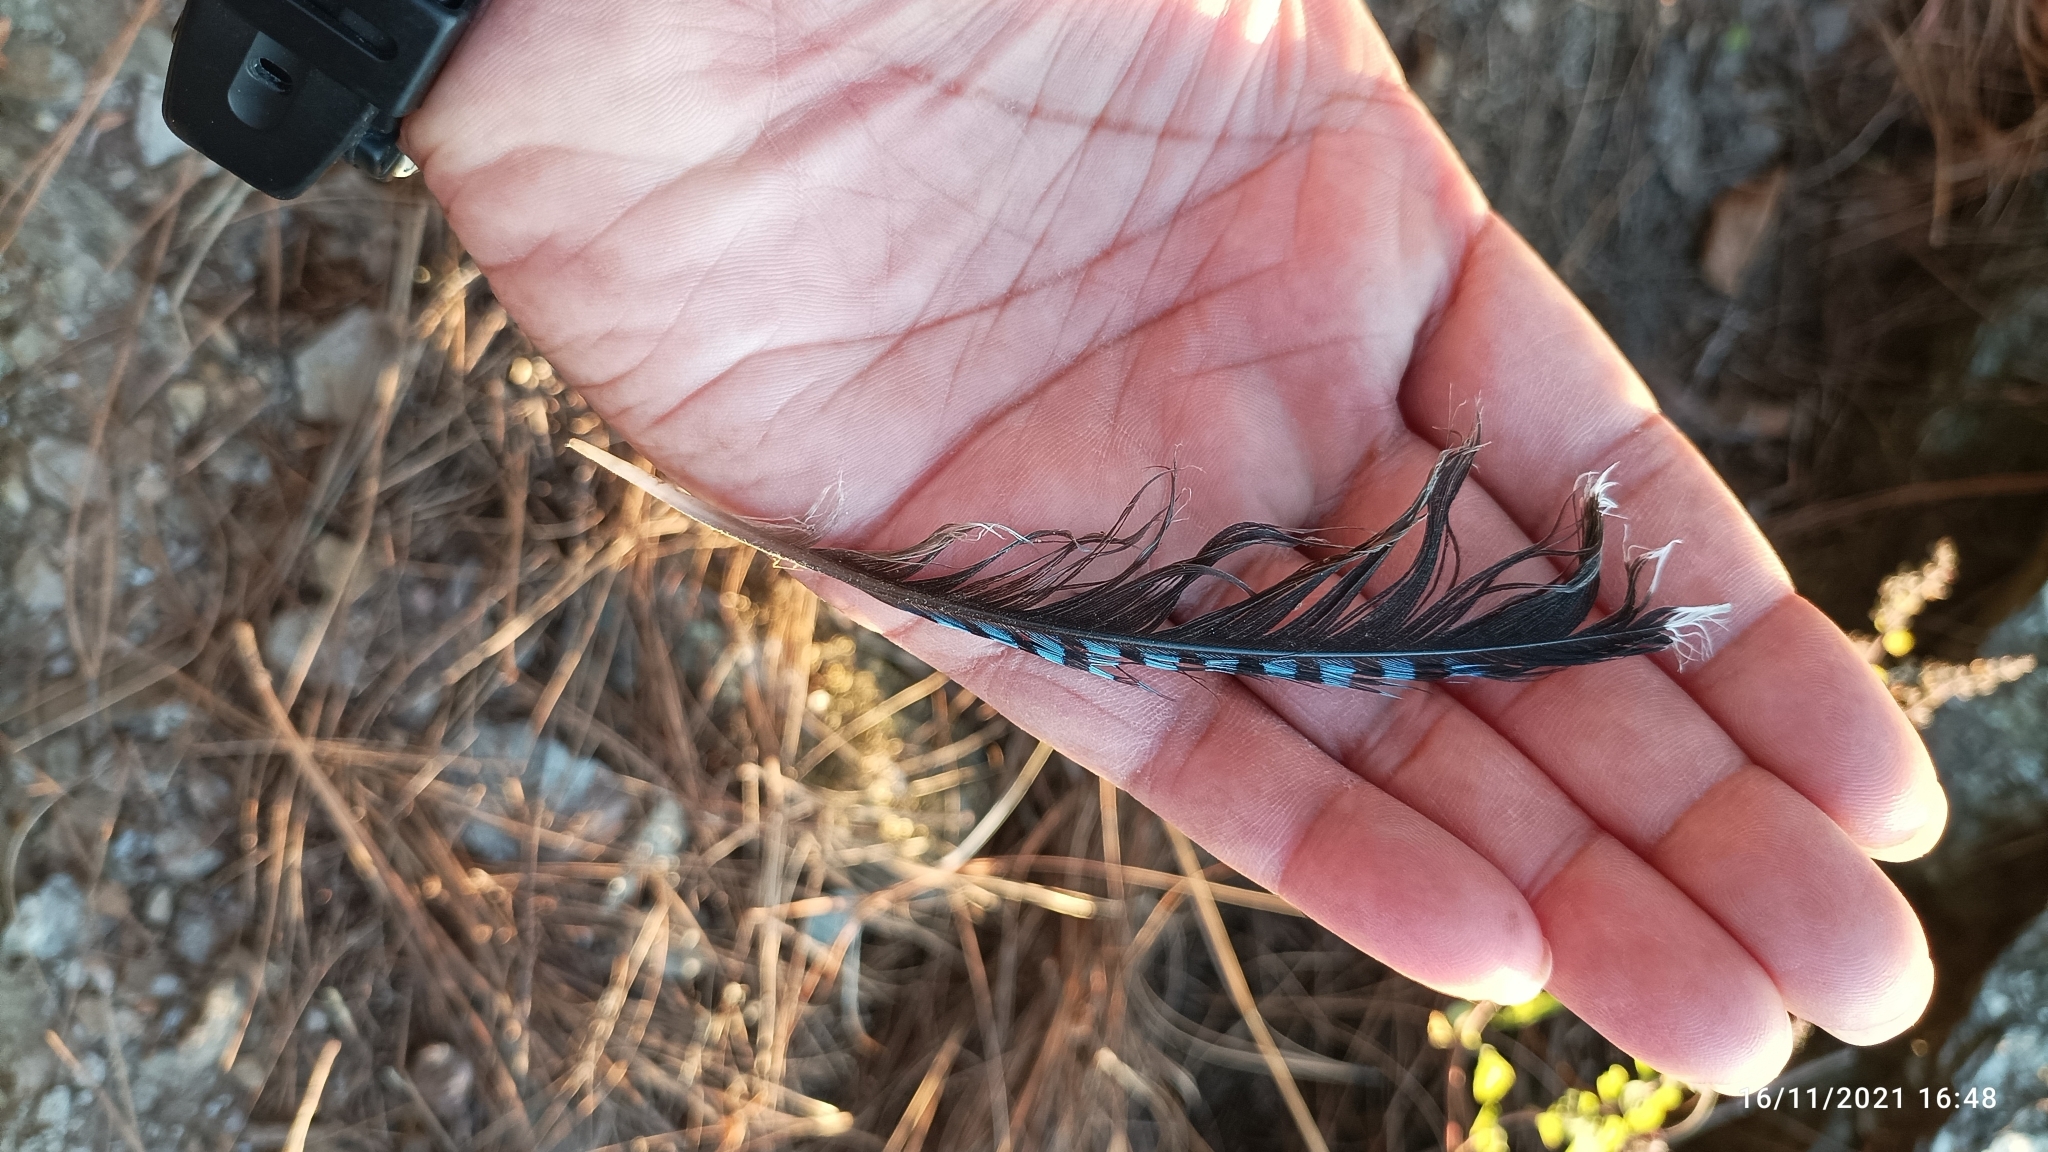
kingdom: Animalia
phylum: Chordata
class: Aves
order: Passeriformes
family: Corvidae
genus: Garrulus
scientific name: Garrulus lanceolatus
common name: Black-headed jay
